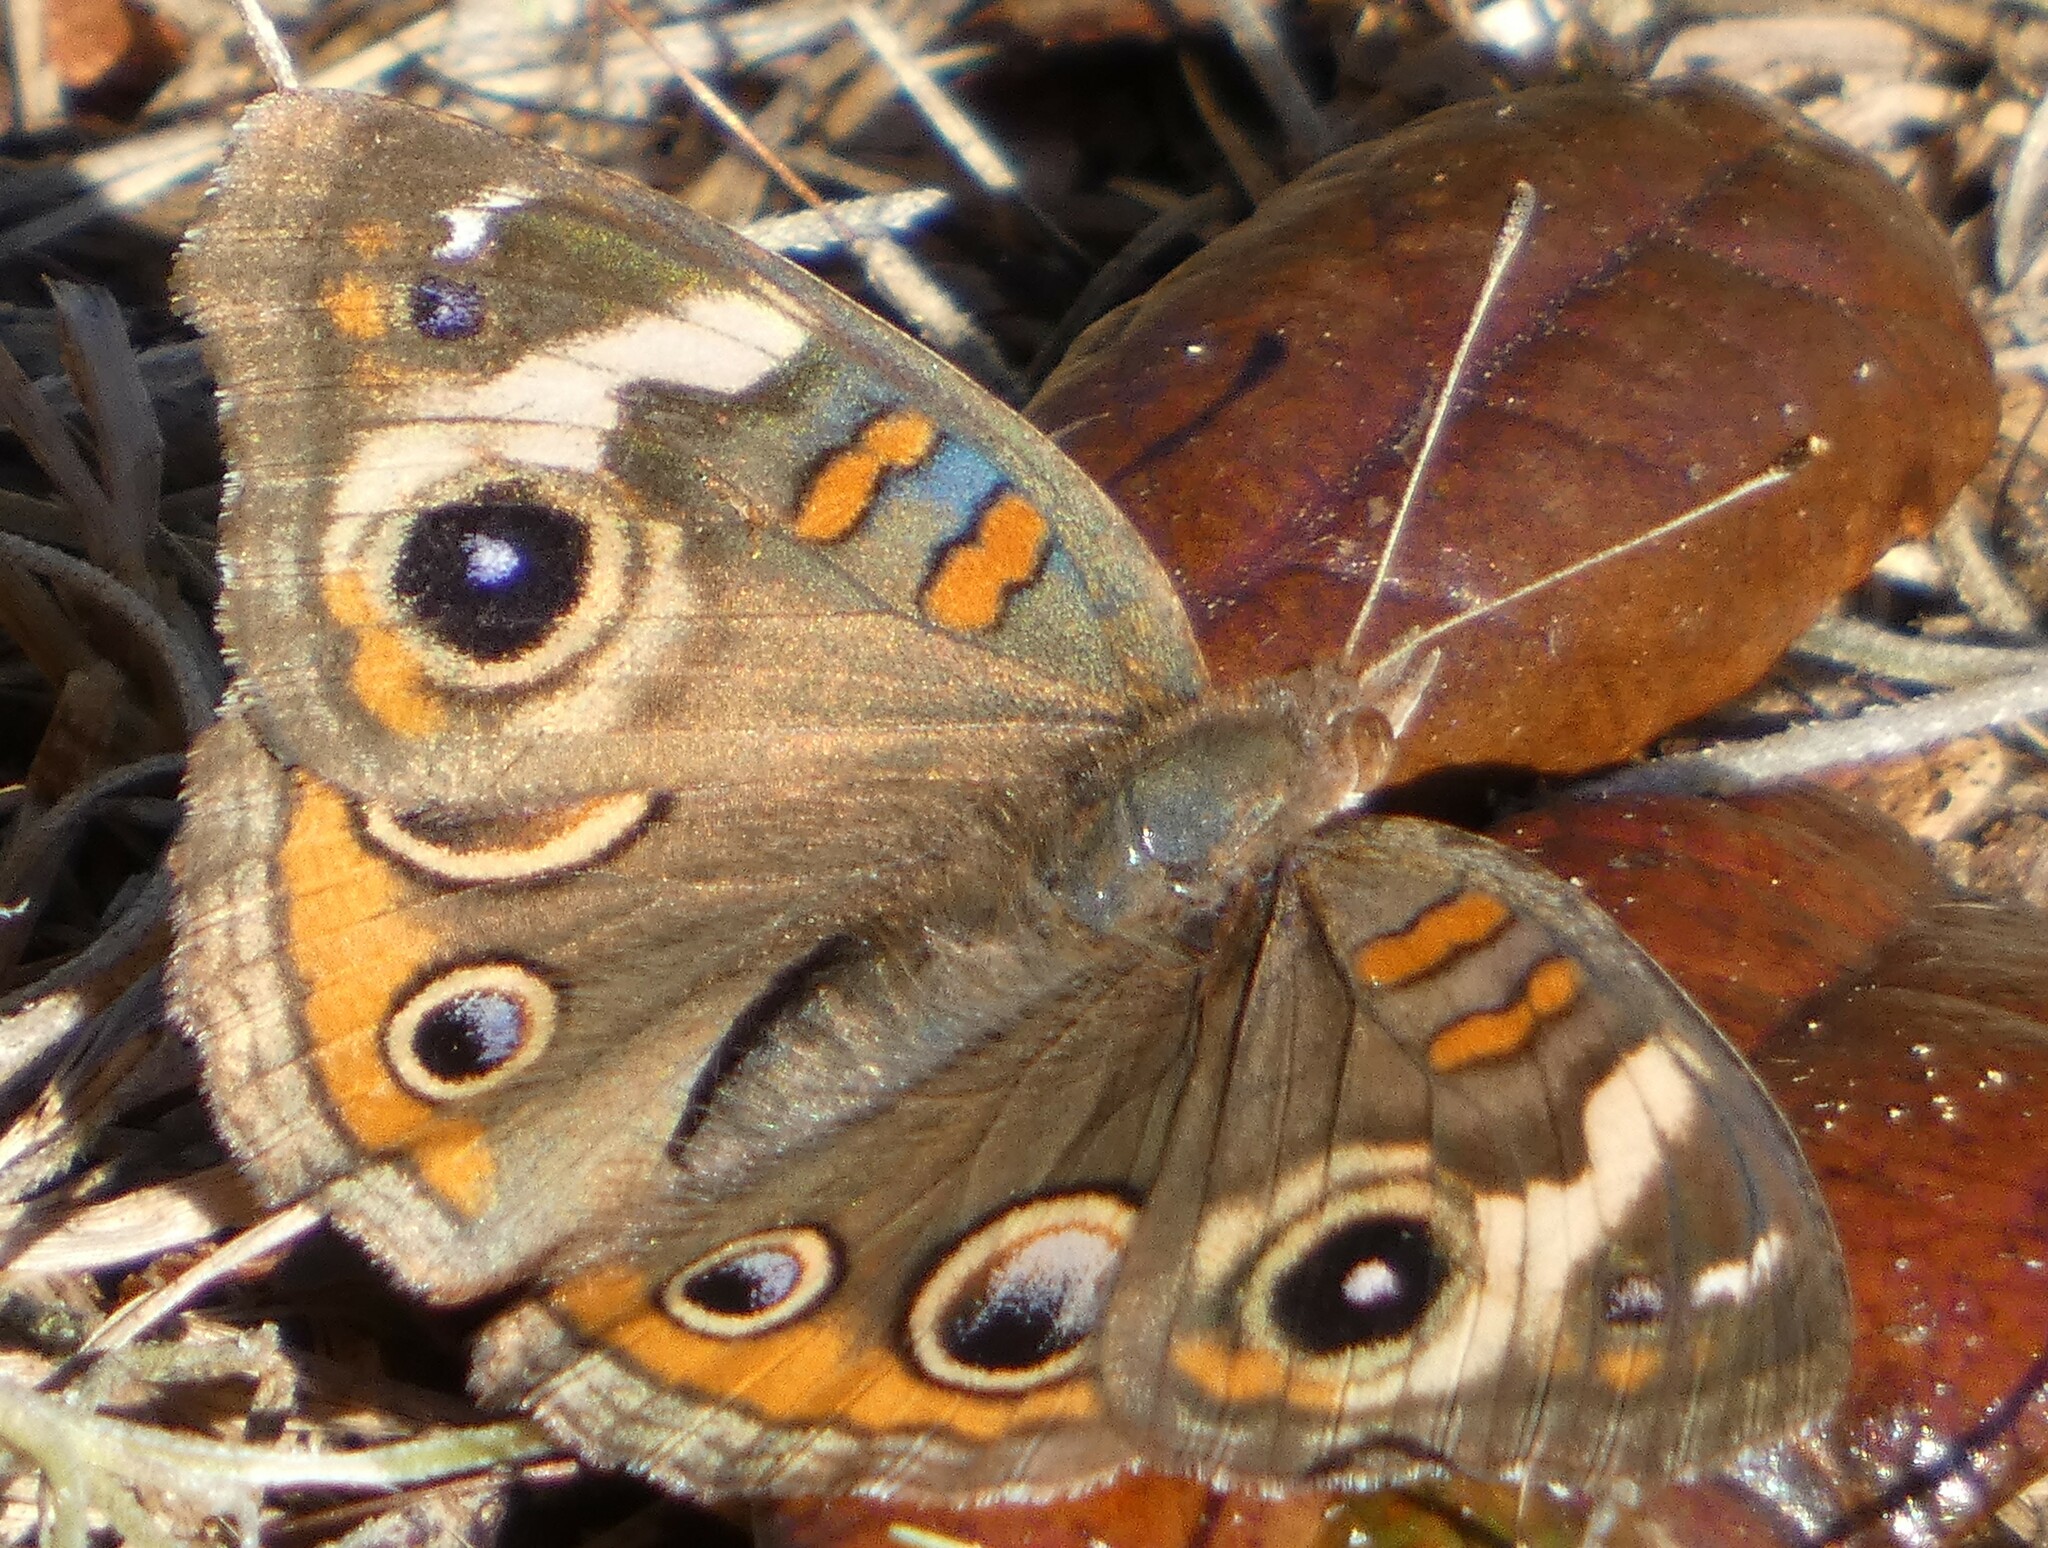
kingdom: Animalia
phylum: Arthropoda
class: Insecta
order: Lepidoptera
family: Nymphalidae
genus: Junonia
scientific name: Junonia coenia
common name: Common buckeye
